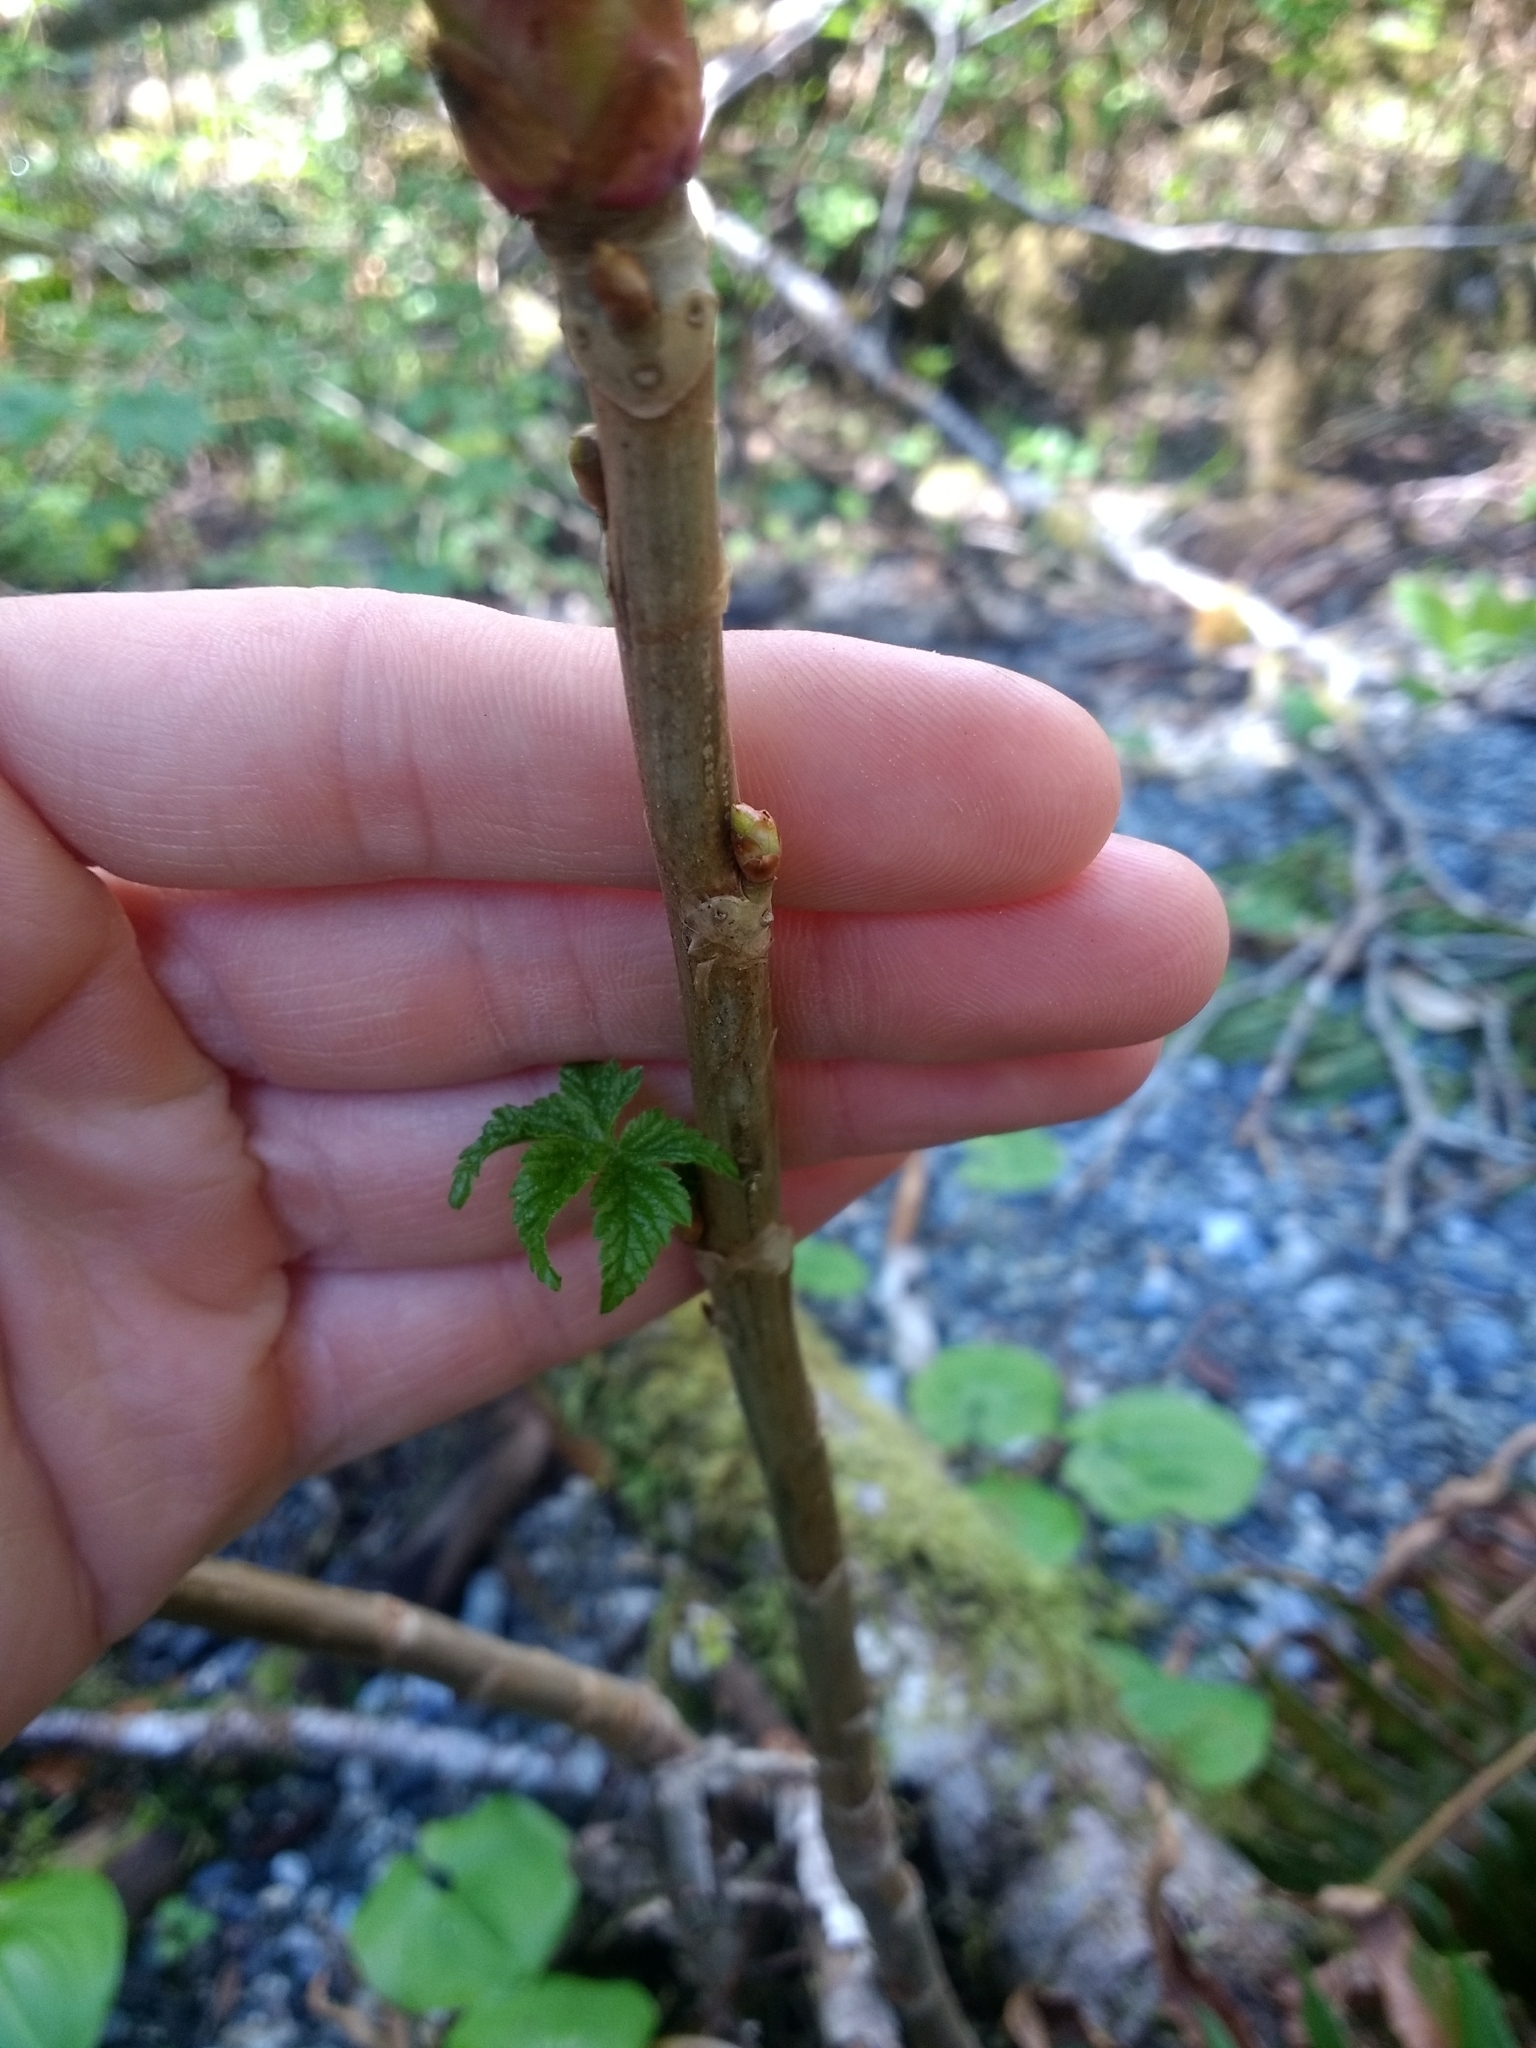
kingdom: Plantae
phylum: Tracheophyta
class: Magnoliopsida
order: Saxifragales
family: Grossulariaceae
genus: Ribes
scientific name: Ribes bracteosum
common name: California black currant
